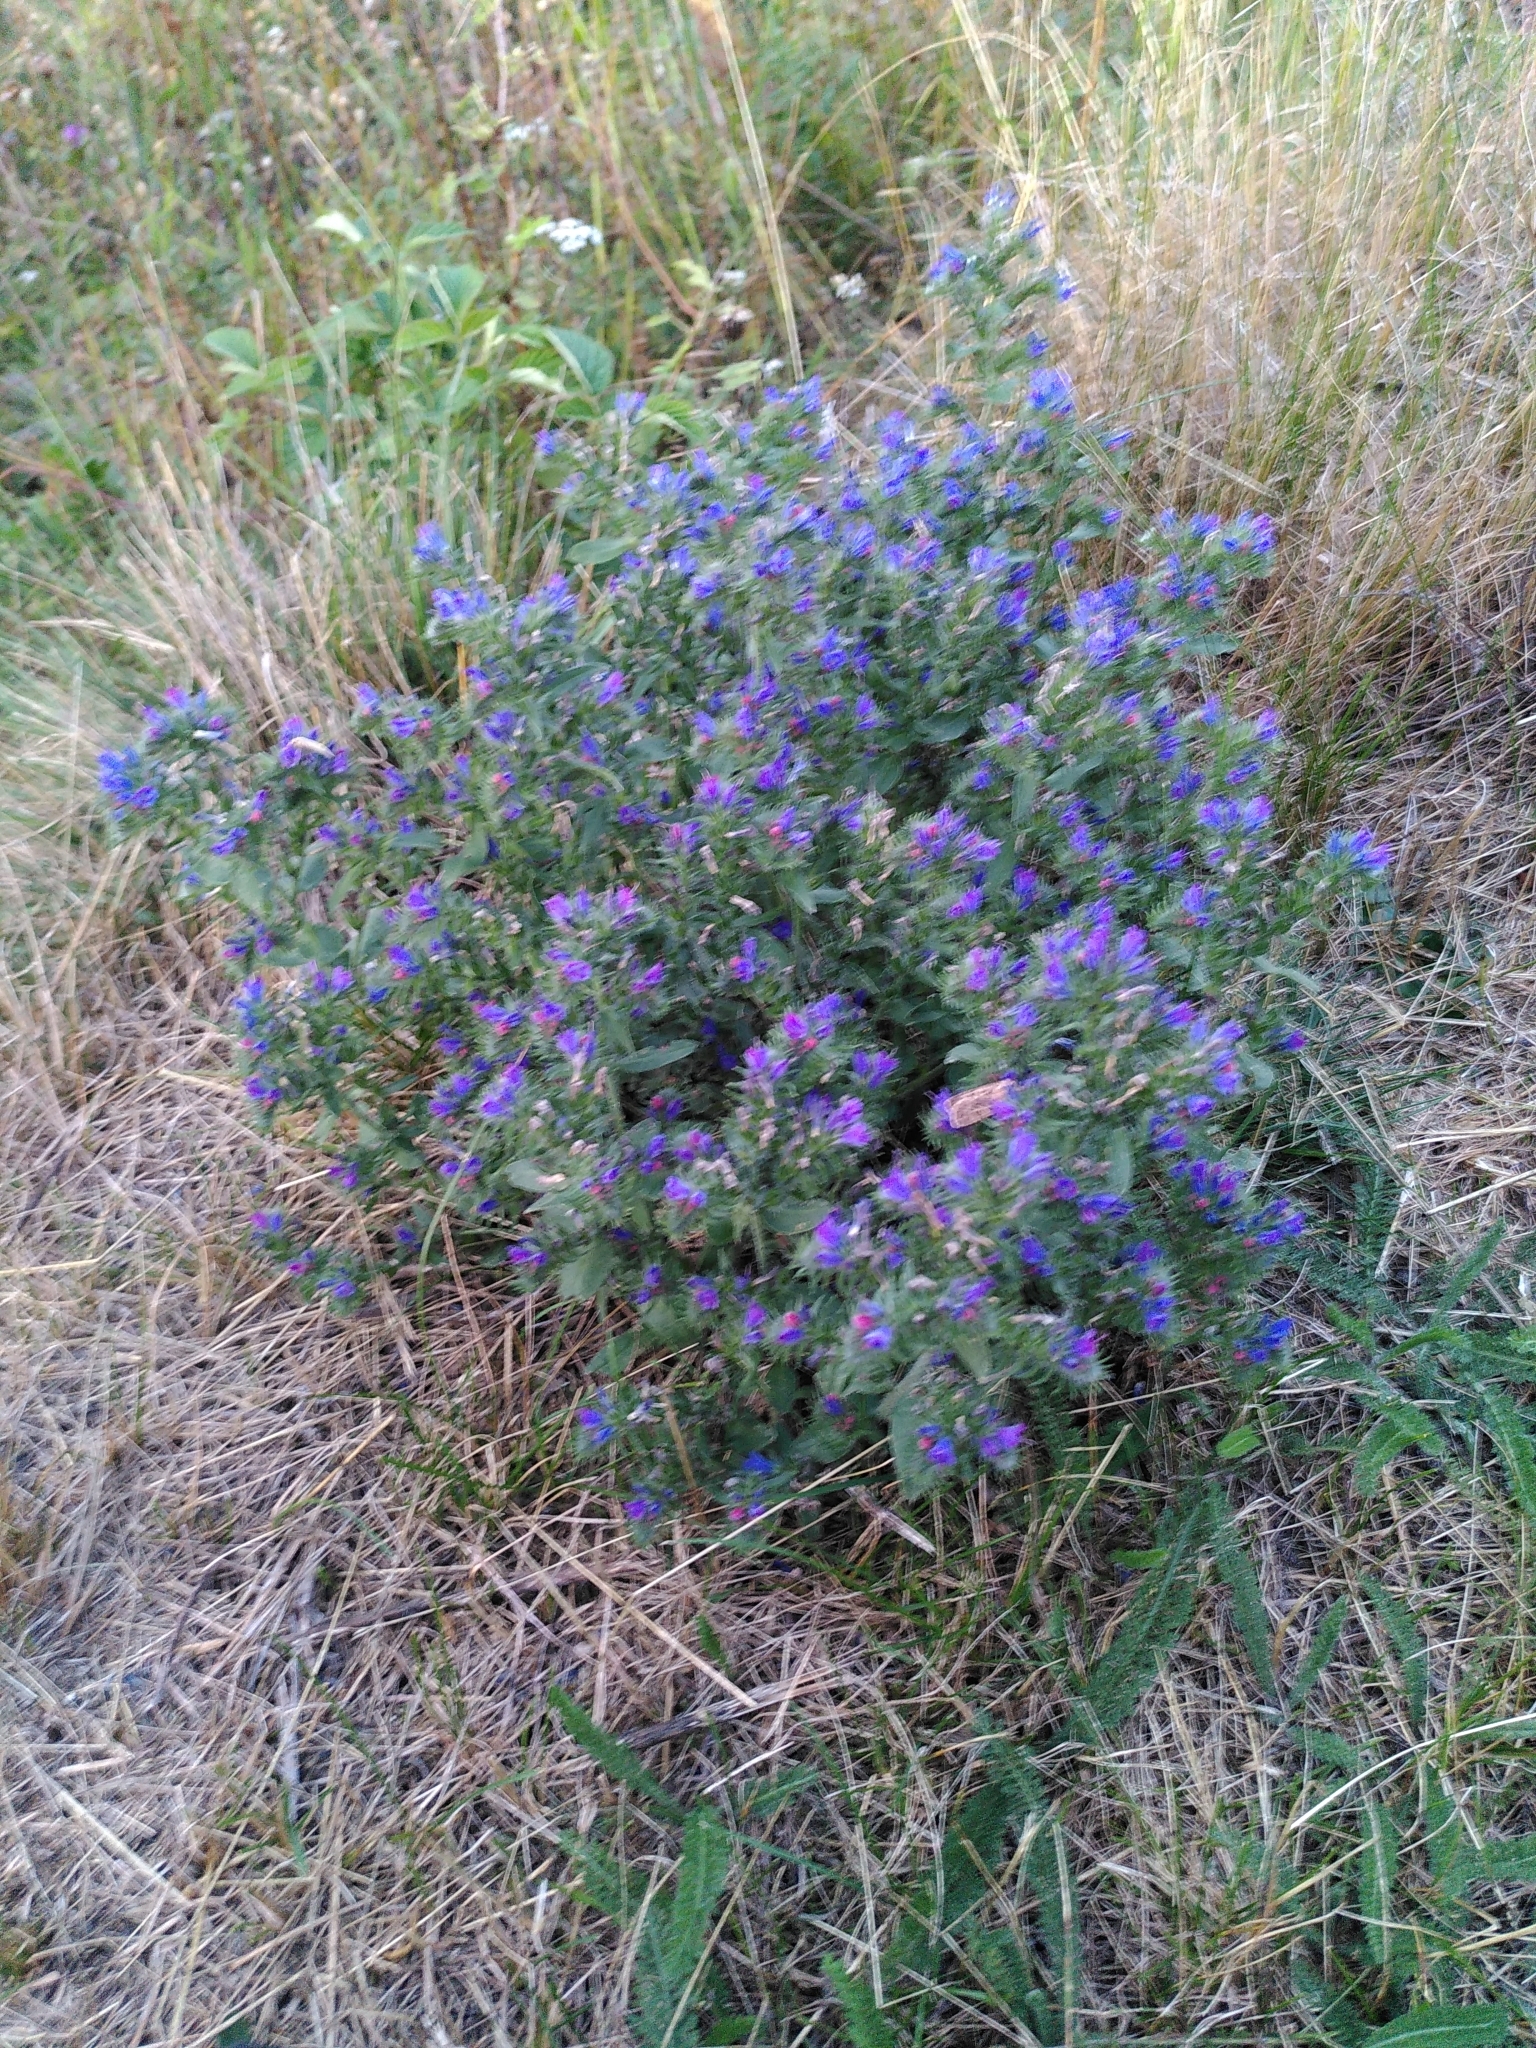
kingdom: Plantae
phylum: Tracheophyta
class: Magnoliopsida
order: Boraginales
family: Boraginaceae
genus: Echium
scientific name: Echium vulgare
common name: Common viper's bugloss
